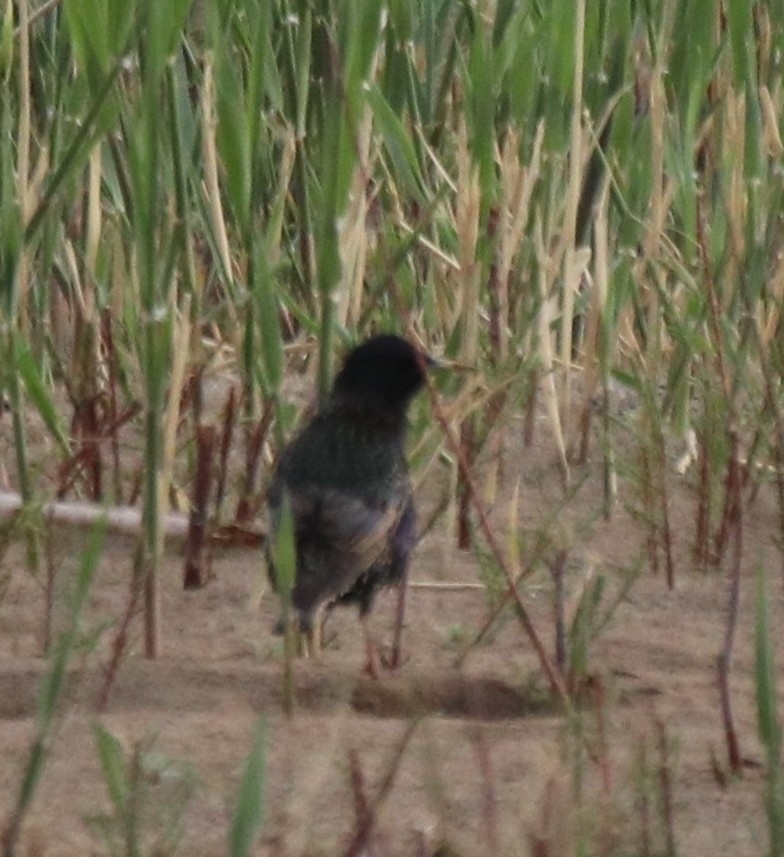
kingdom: Animalia
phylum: Chordata
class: Aves
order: Passeriformes
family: Sturnidae
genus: Sturnus
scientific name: Sturnus vulgaris
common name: Common starling
